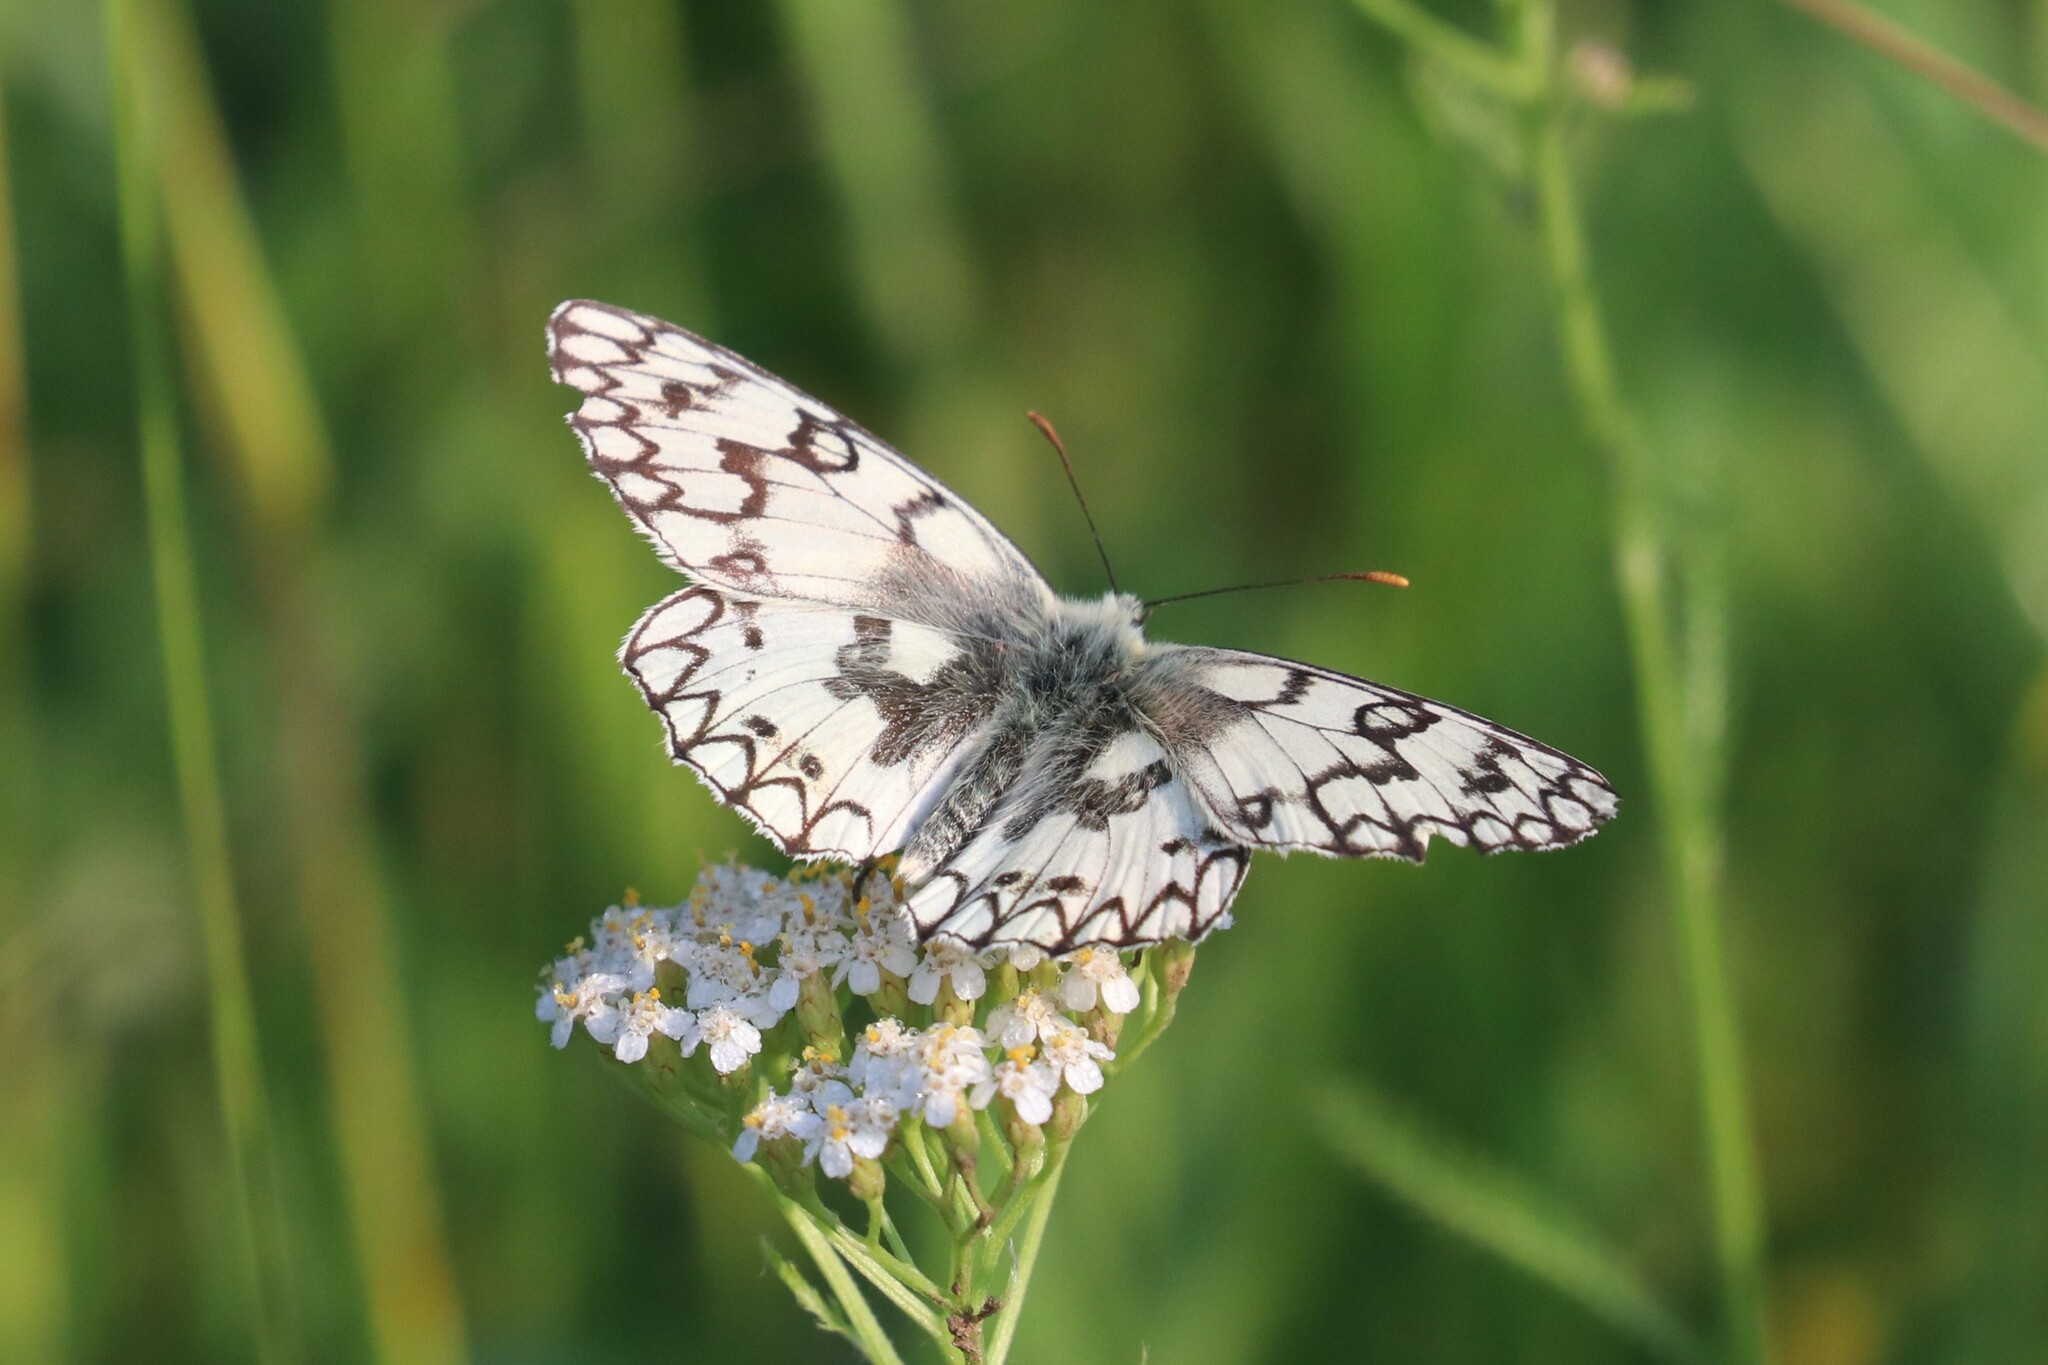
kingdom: Animalia
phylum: Arthropoda
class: Insecta
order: Lepidoptera
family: Nymphalidae
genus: Melanargia
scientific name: Melanargia japygia
